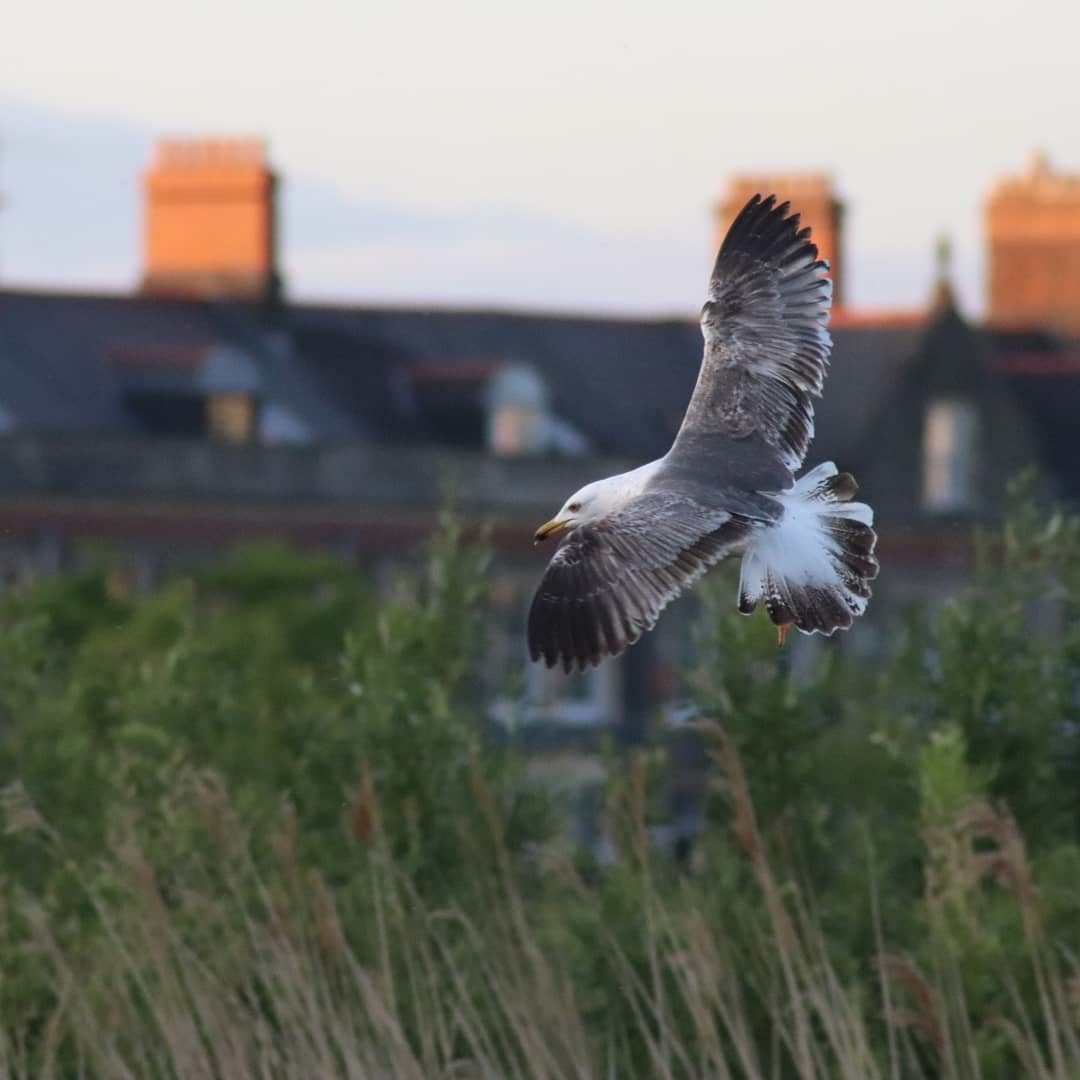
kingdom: Animalia
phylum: Chordata
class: Aves
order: Charadriiformes
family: Laridae
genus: Larus
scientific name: Larus fuscus
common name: Lesser black-backed gull
